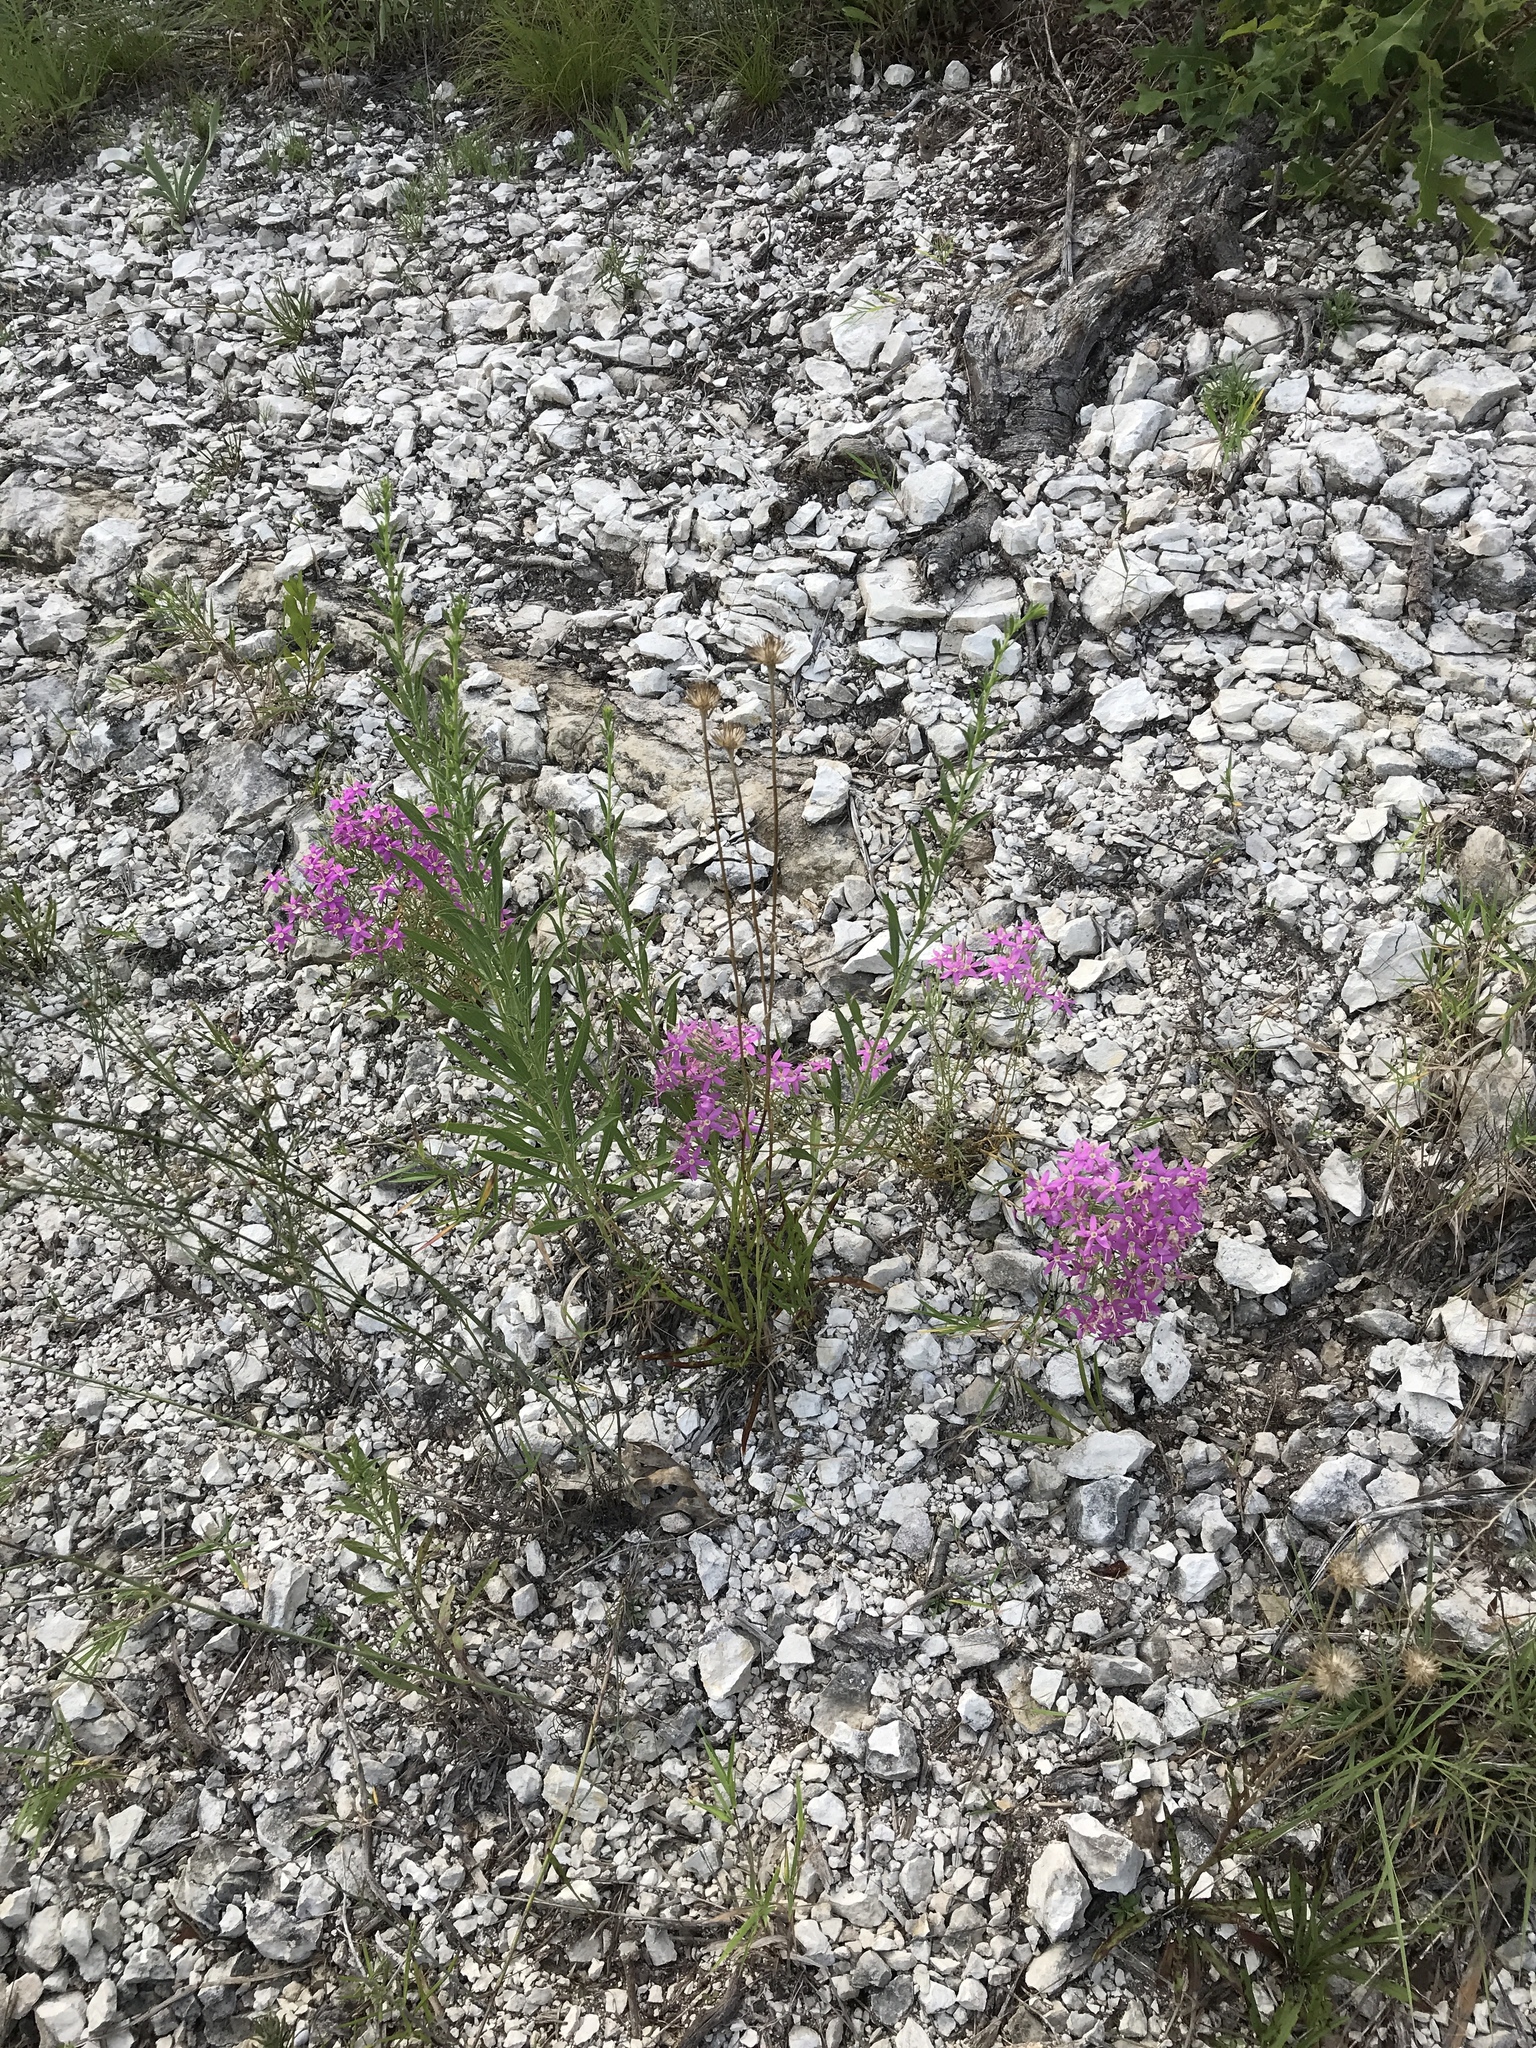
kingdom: Plantae
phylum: Tracheophyta
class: Magnoliopsida
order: Gentianales
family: Gentianaceae
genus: Zeltnera
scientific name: Zeltnera beyrichii
